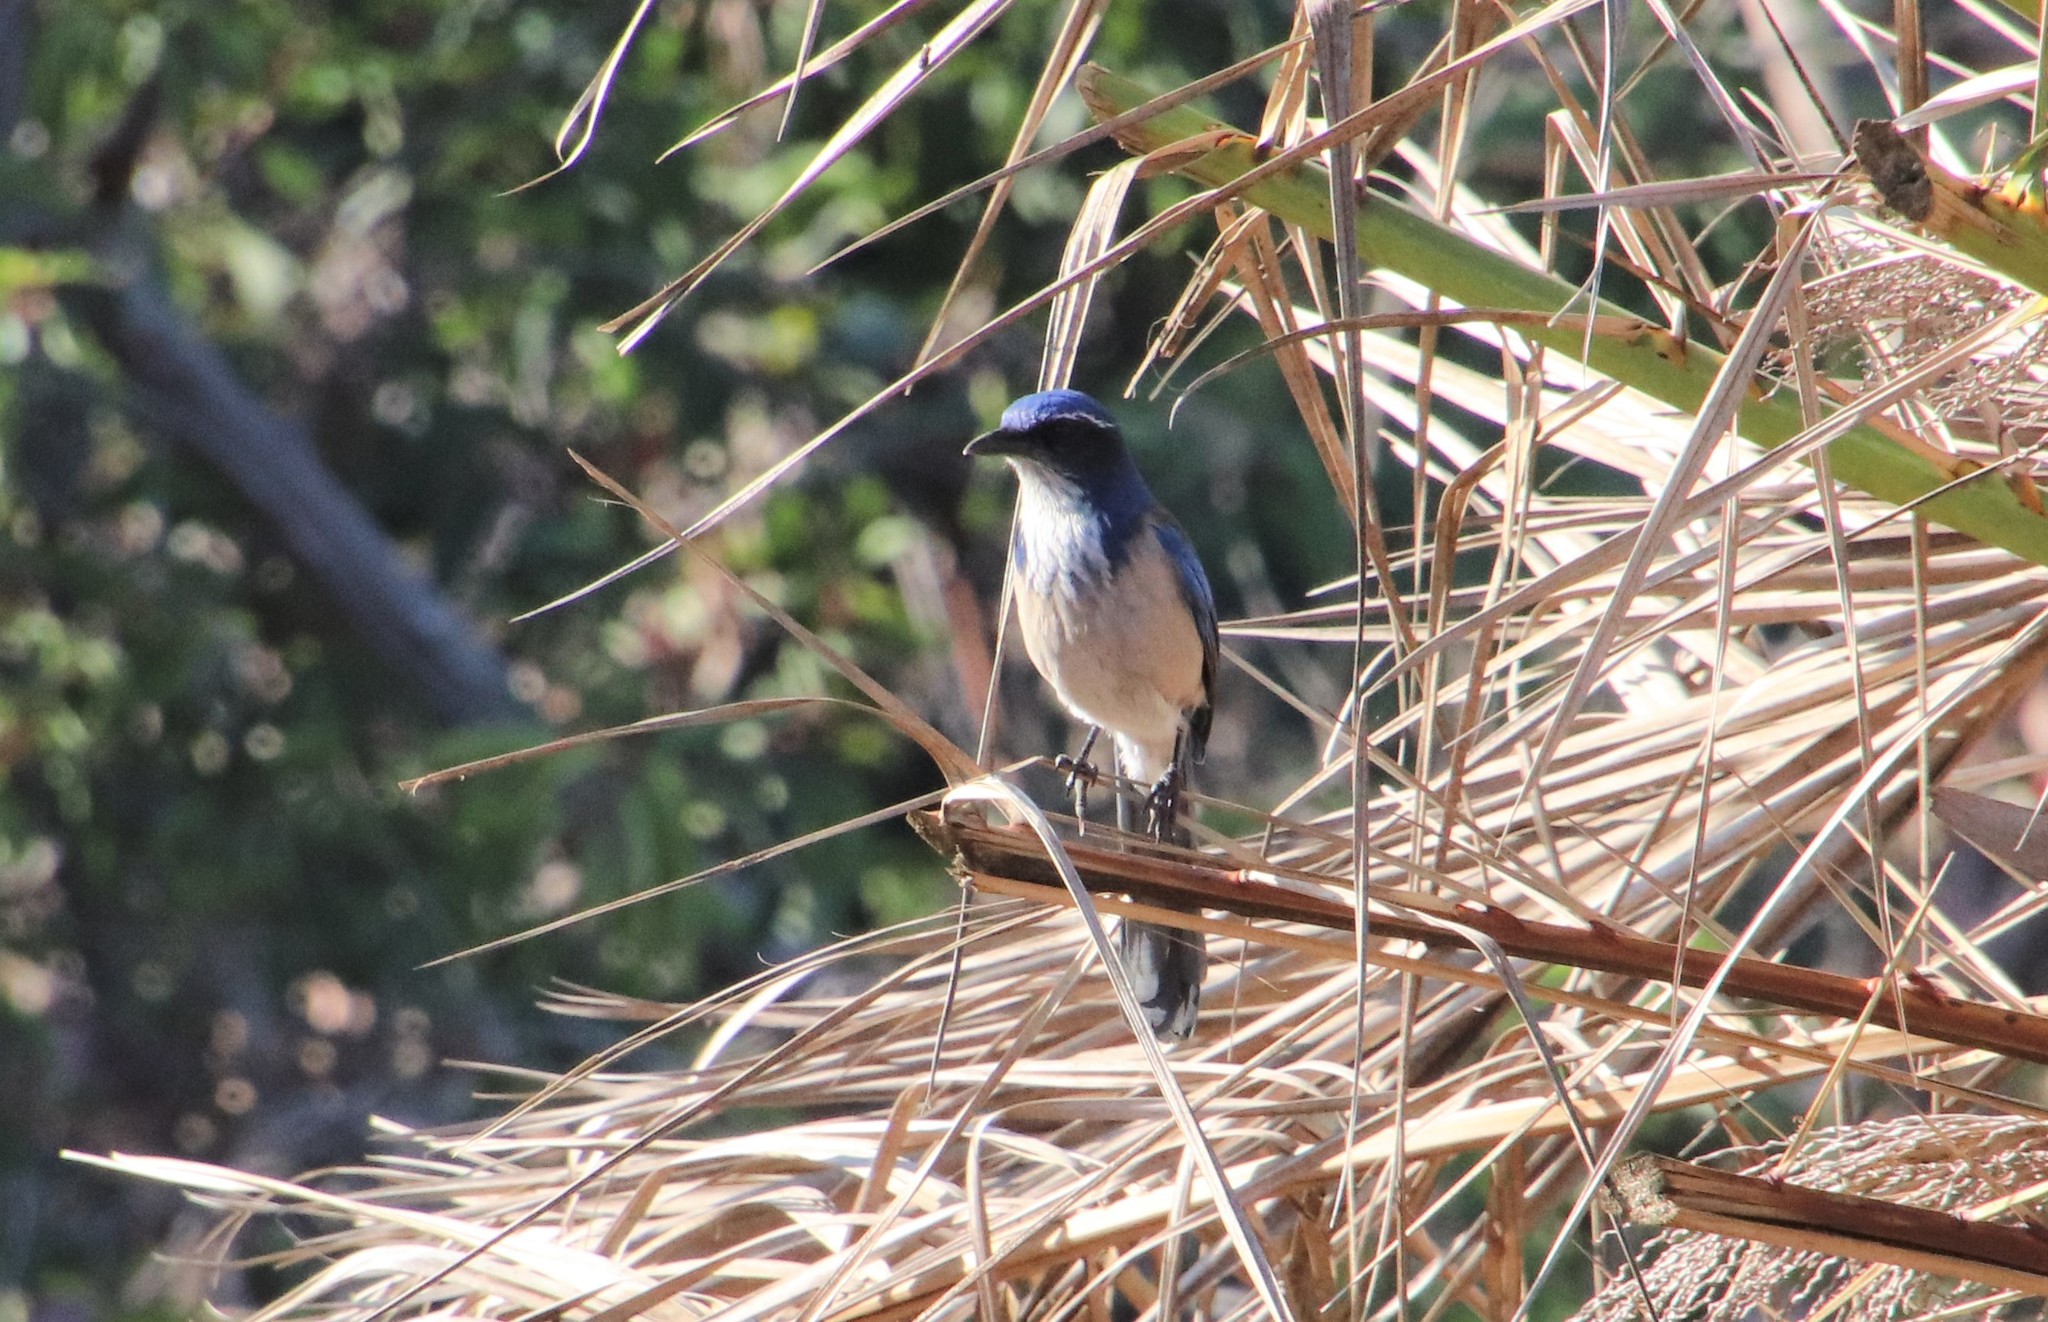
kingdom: Animalia
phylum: Chordata
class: Aves
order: Passeriformes
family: Corvidae
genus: Aphelocoma
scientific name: Aphelocoma californica
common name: California scrub-jay
